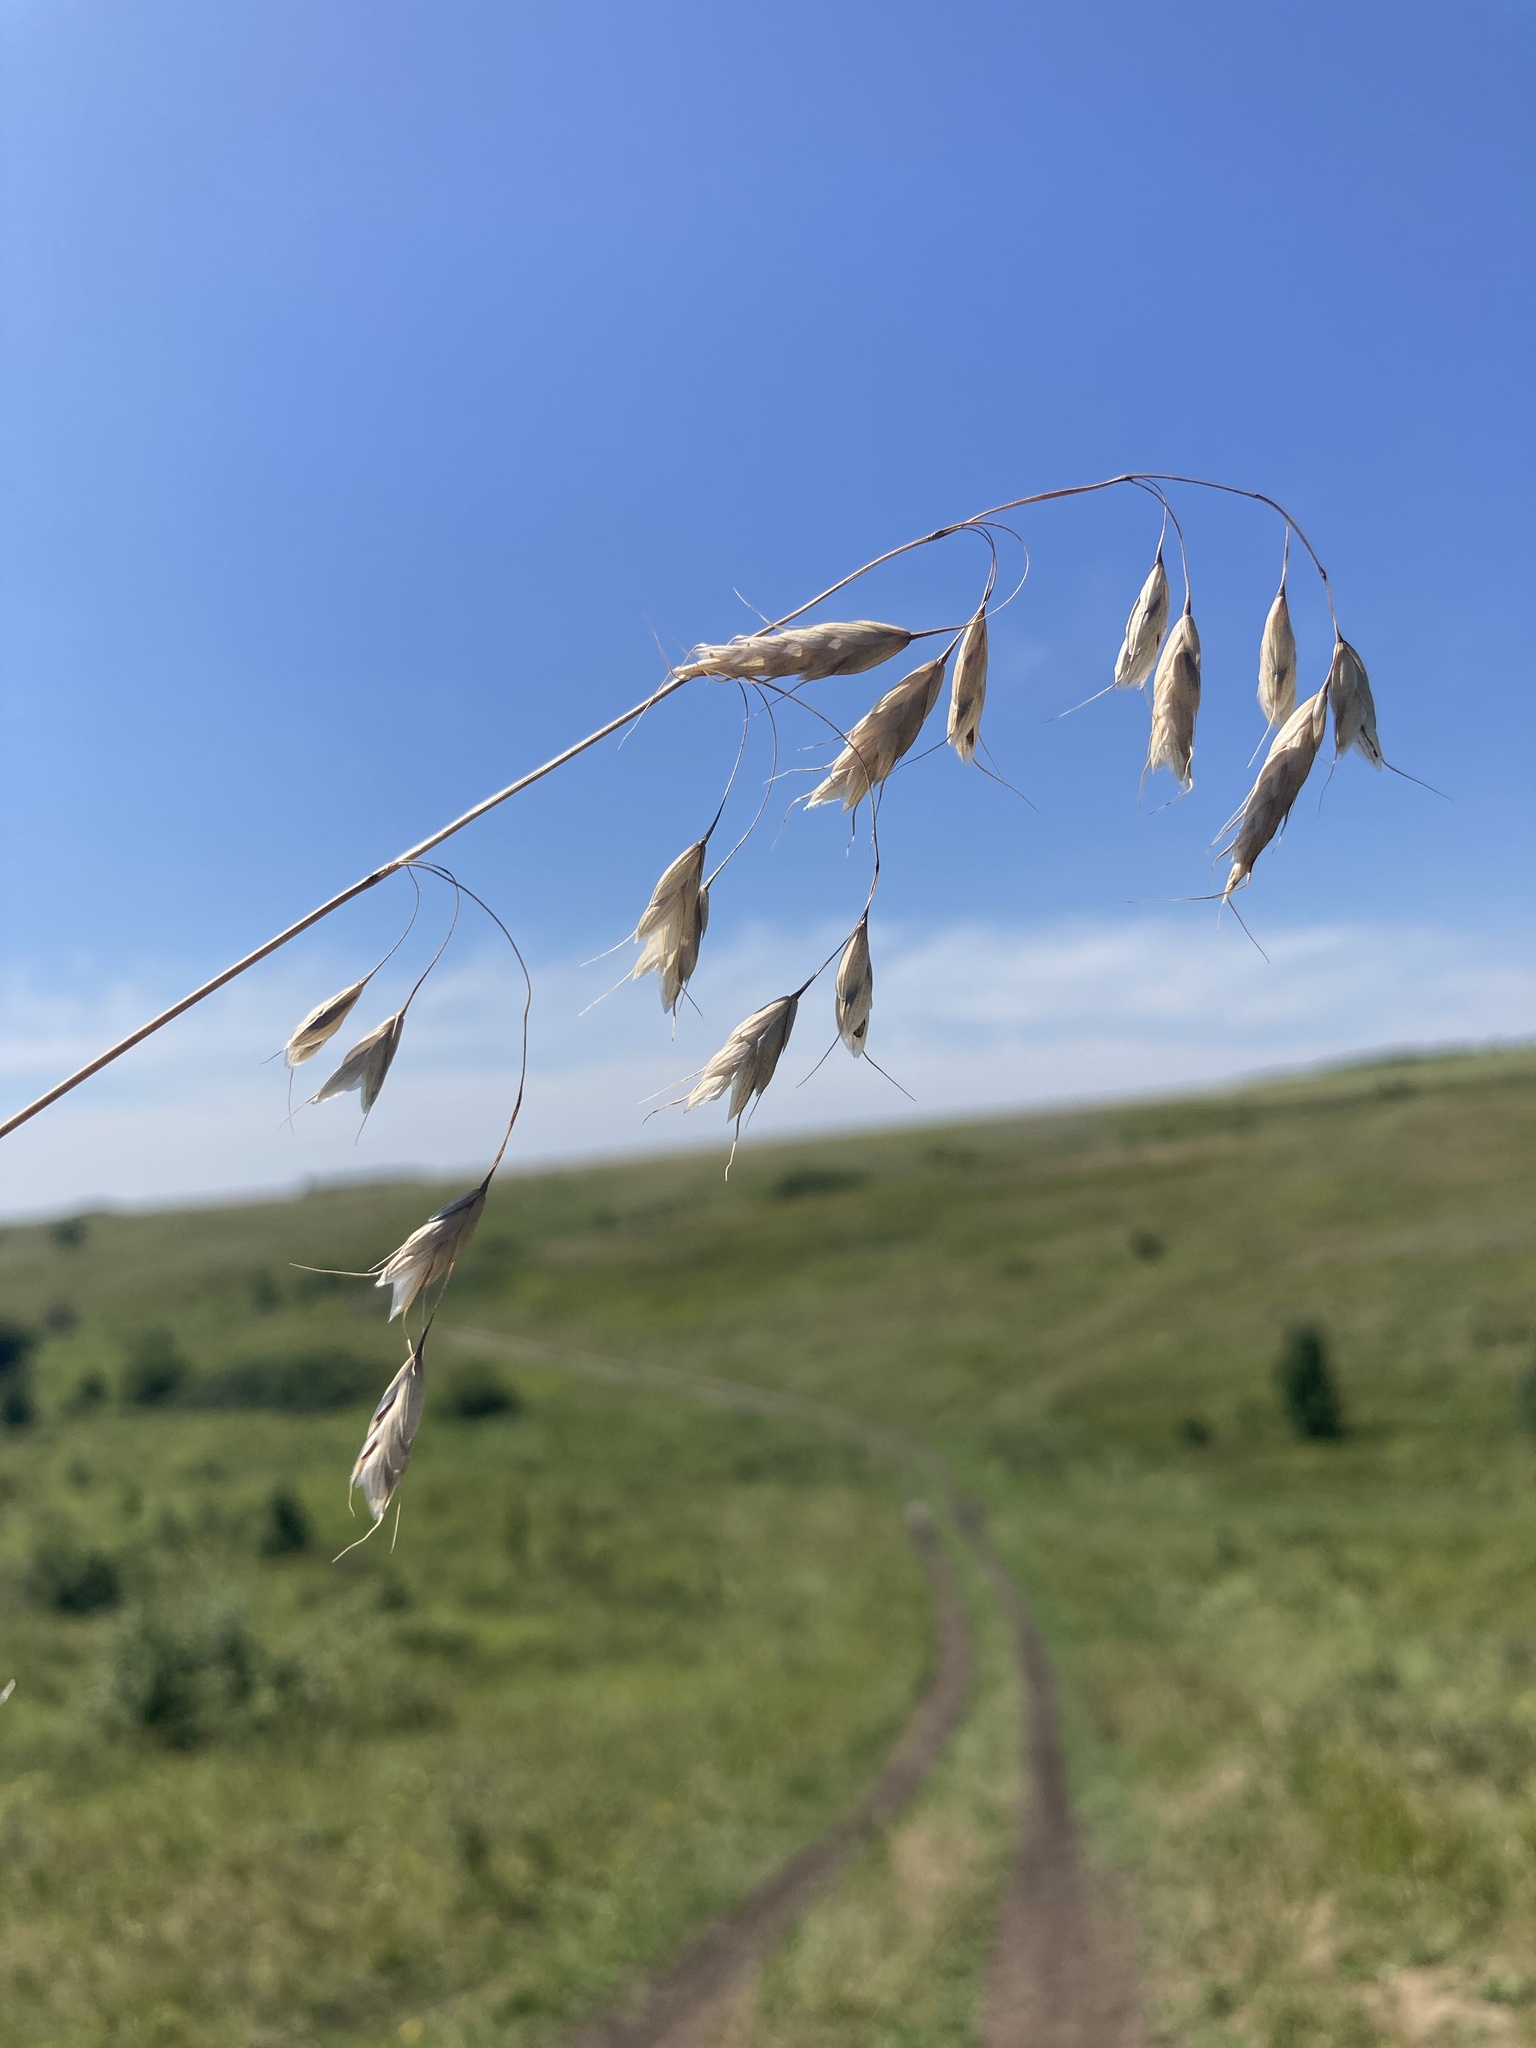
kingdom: Plantae
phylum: Tracheophyta
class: Liliopsida
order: Poales
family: Poaceae
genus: Bromus
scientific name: Bromus squarrosus
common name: Corn brome
